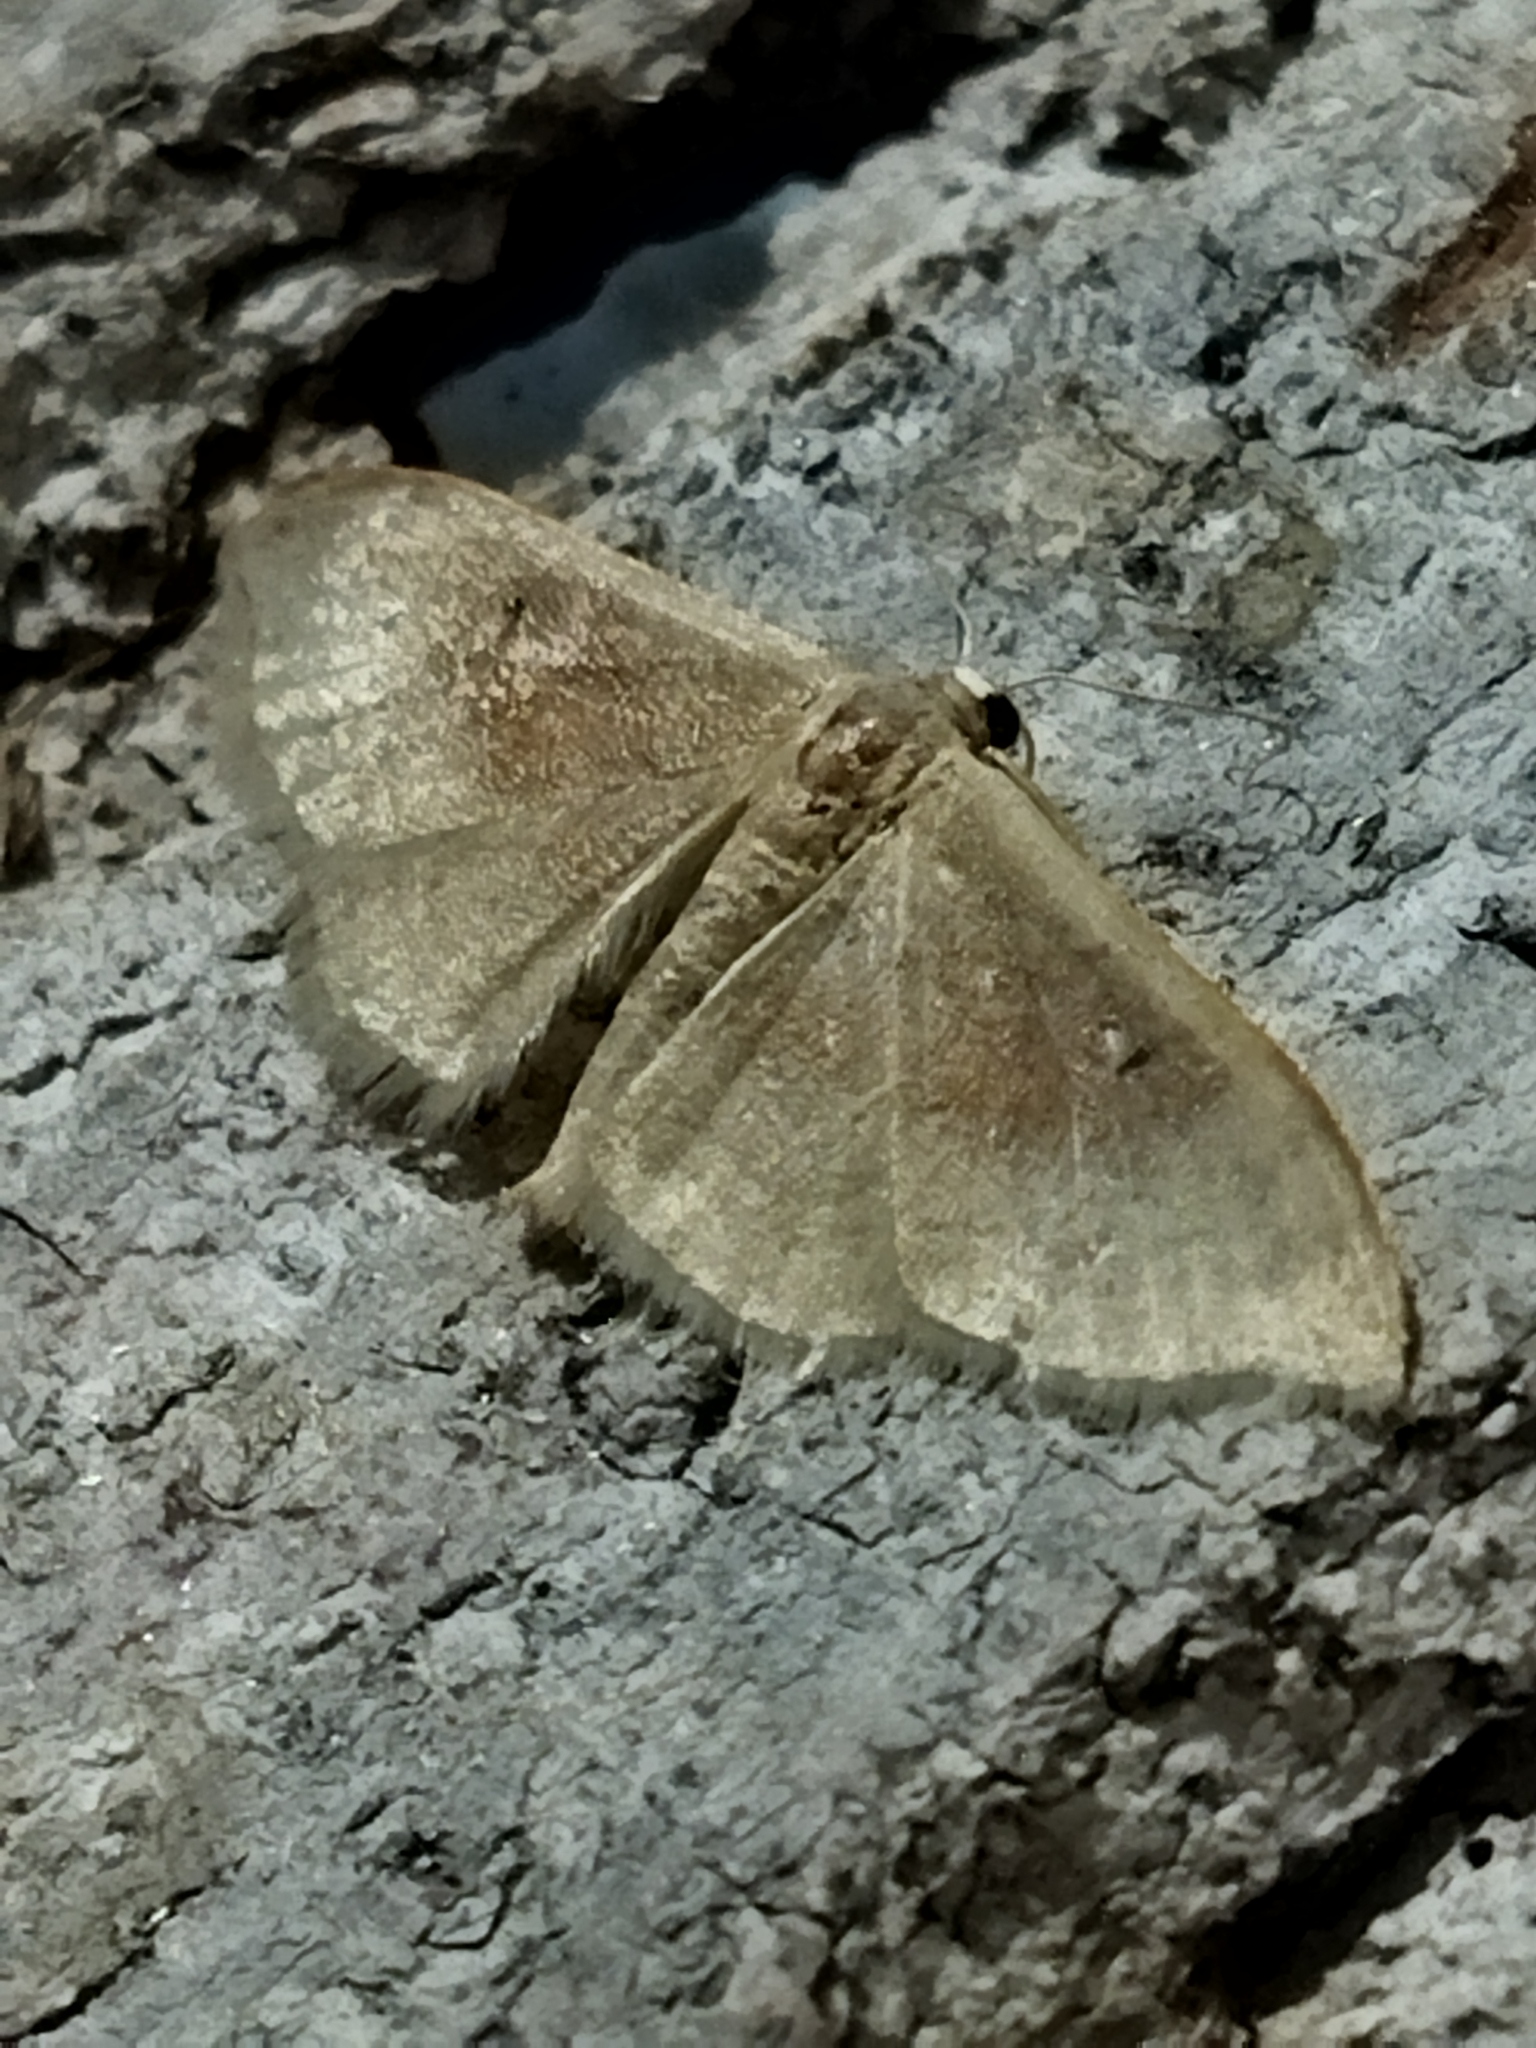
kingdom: Animalia
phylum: Arthropoda
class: Insecta
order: Lepidoptera
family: Geometridae
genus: Idaea
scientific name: Idaea degeneraria
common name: Portland ribbon wave
